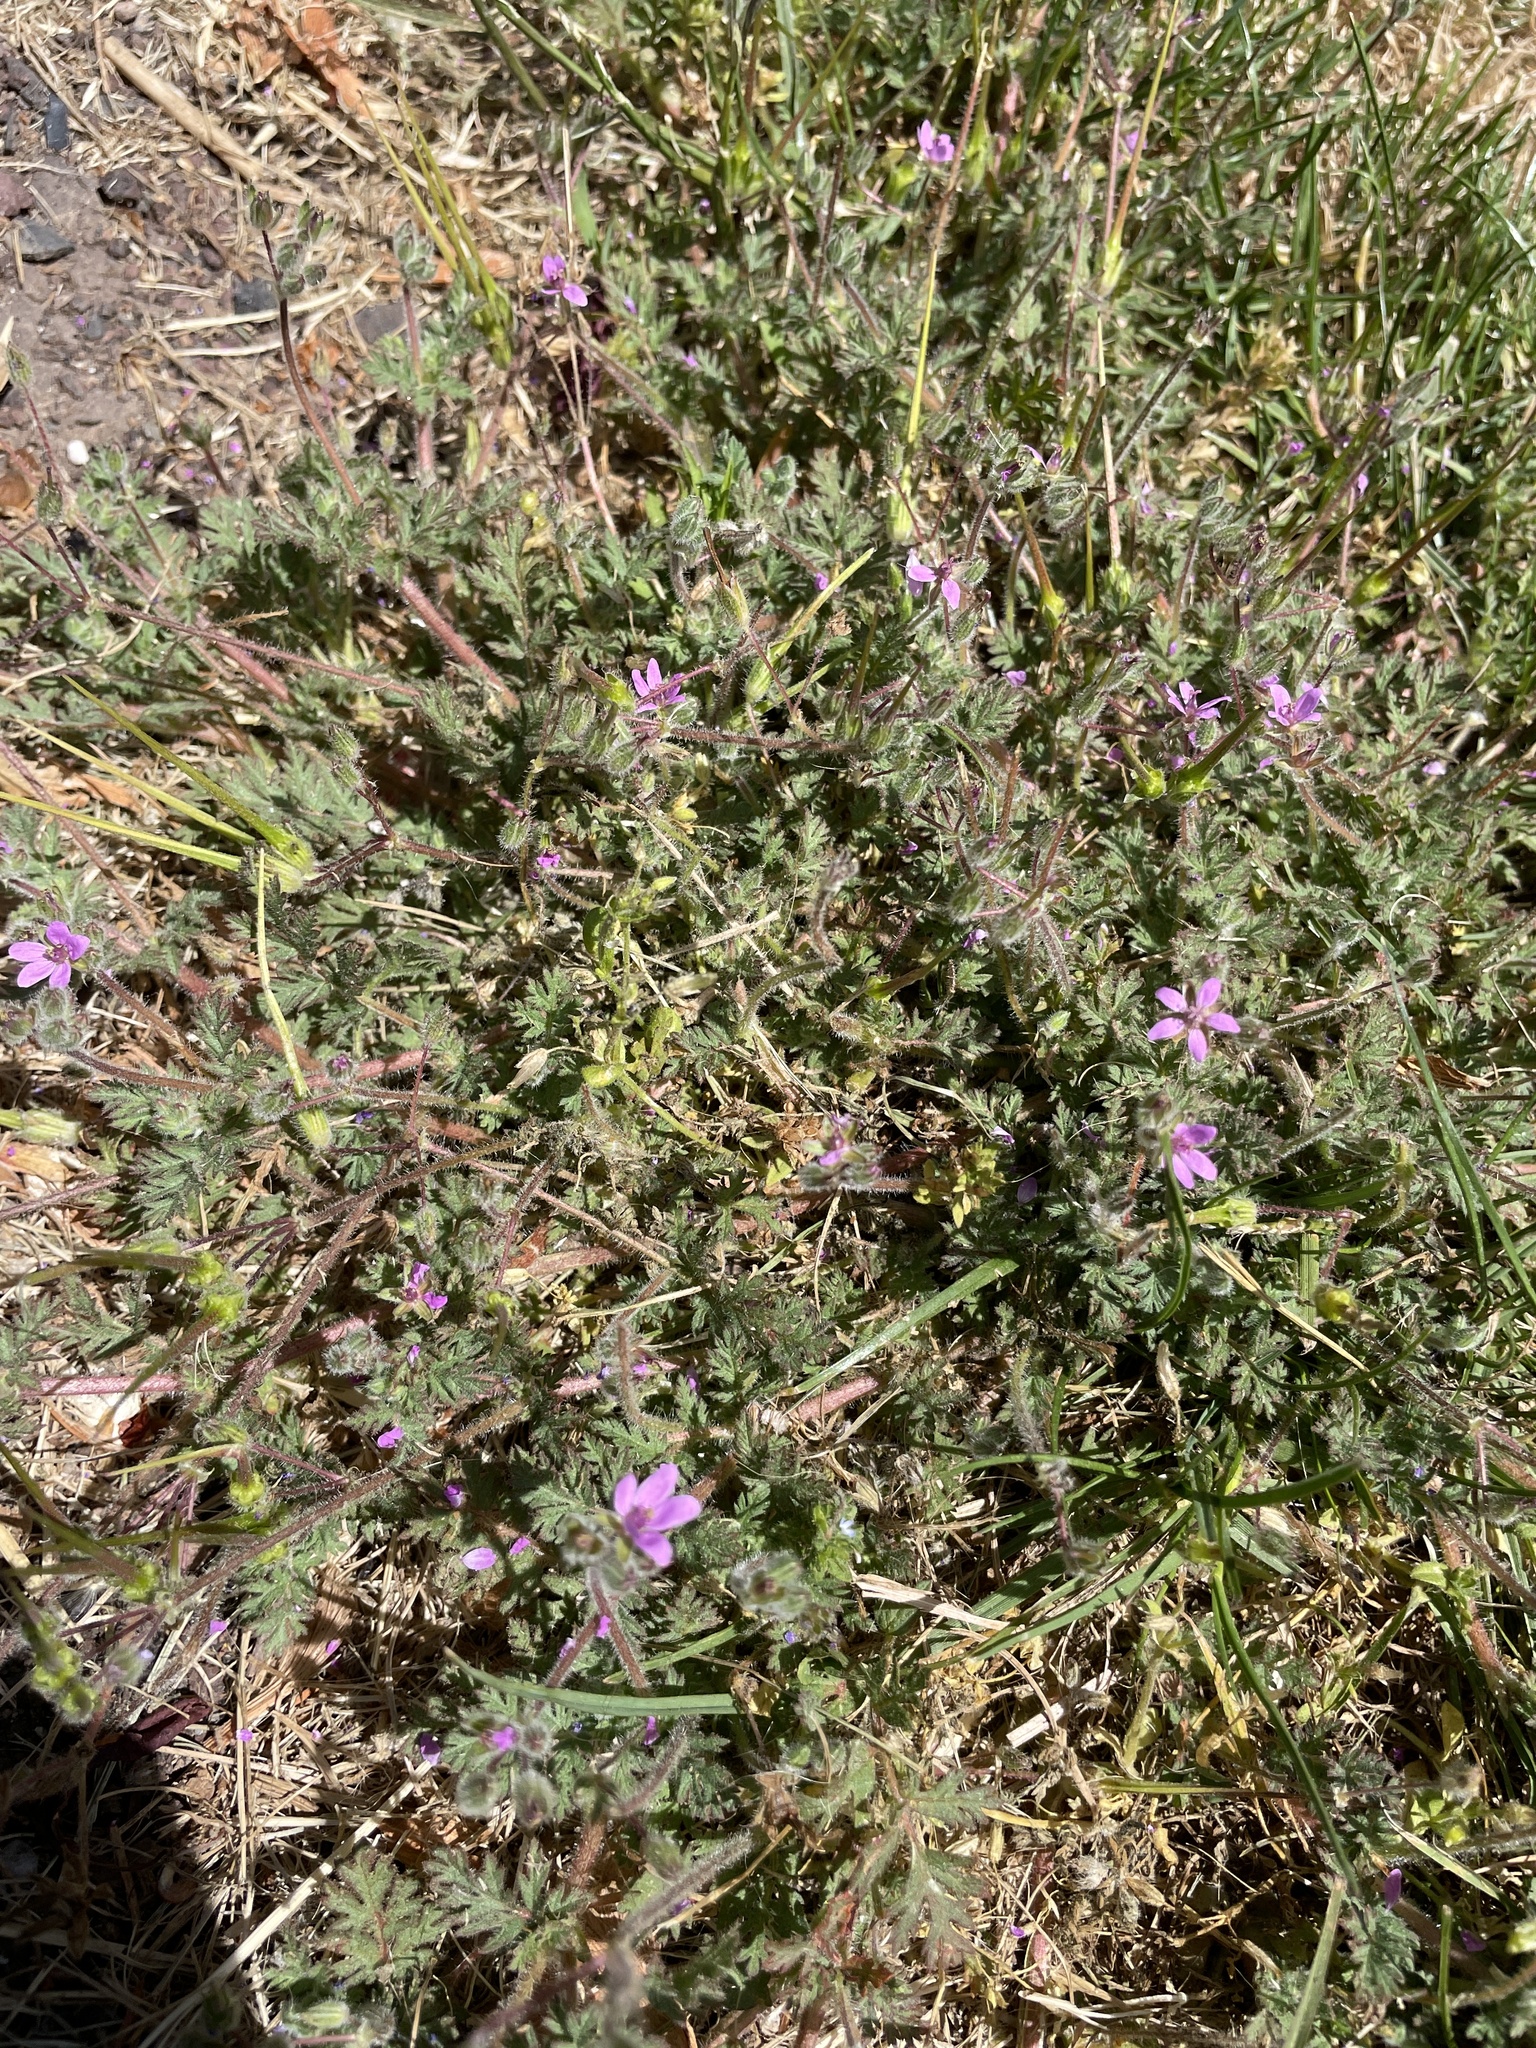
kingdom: Plantae
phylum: Tracheophyta
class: Magnoliopsida
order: Geraniales
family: Geraniaceae
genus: Erodium
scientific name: Erodium cicutarium
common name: Common stork's-bill
